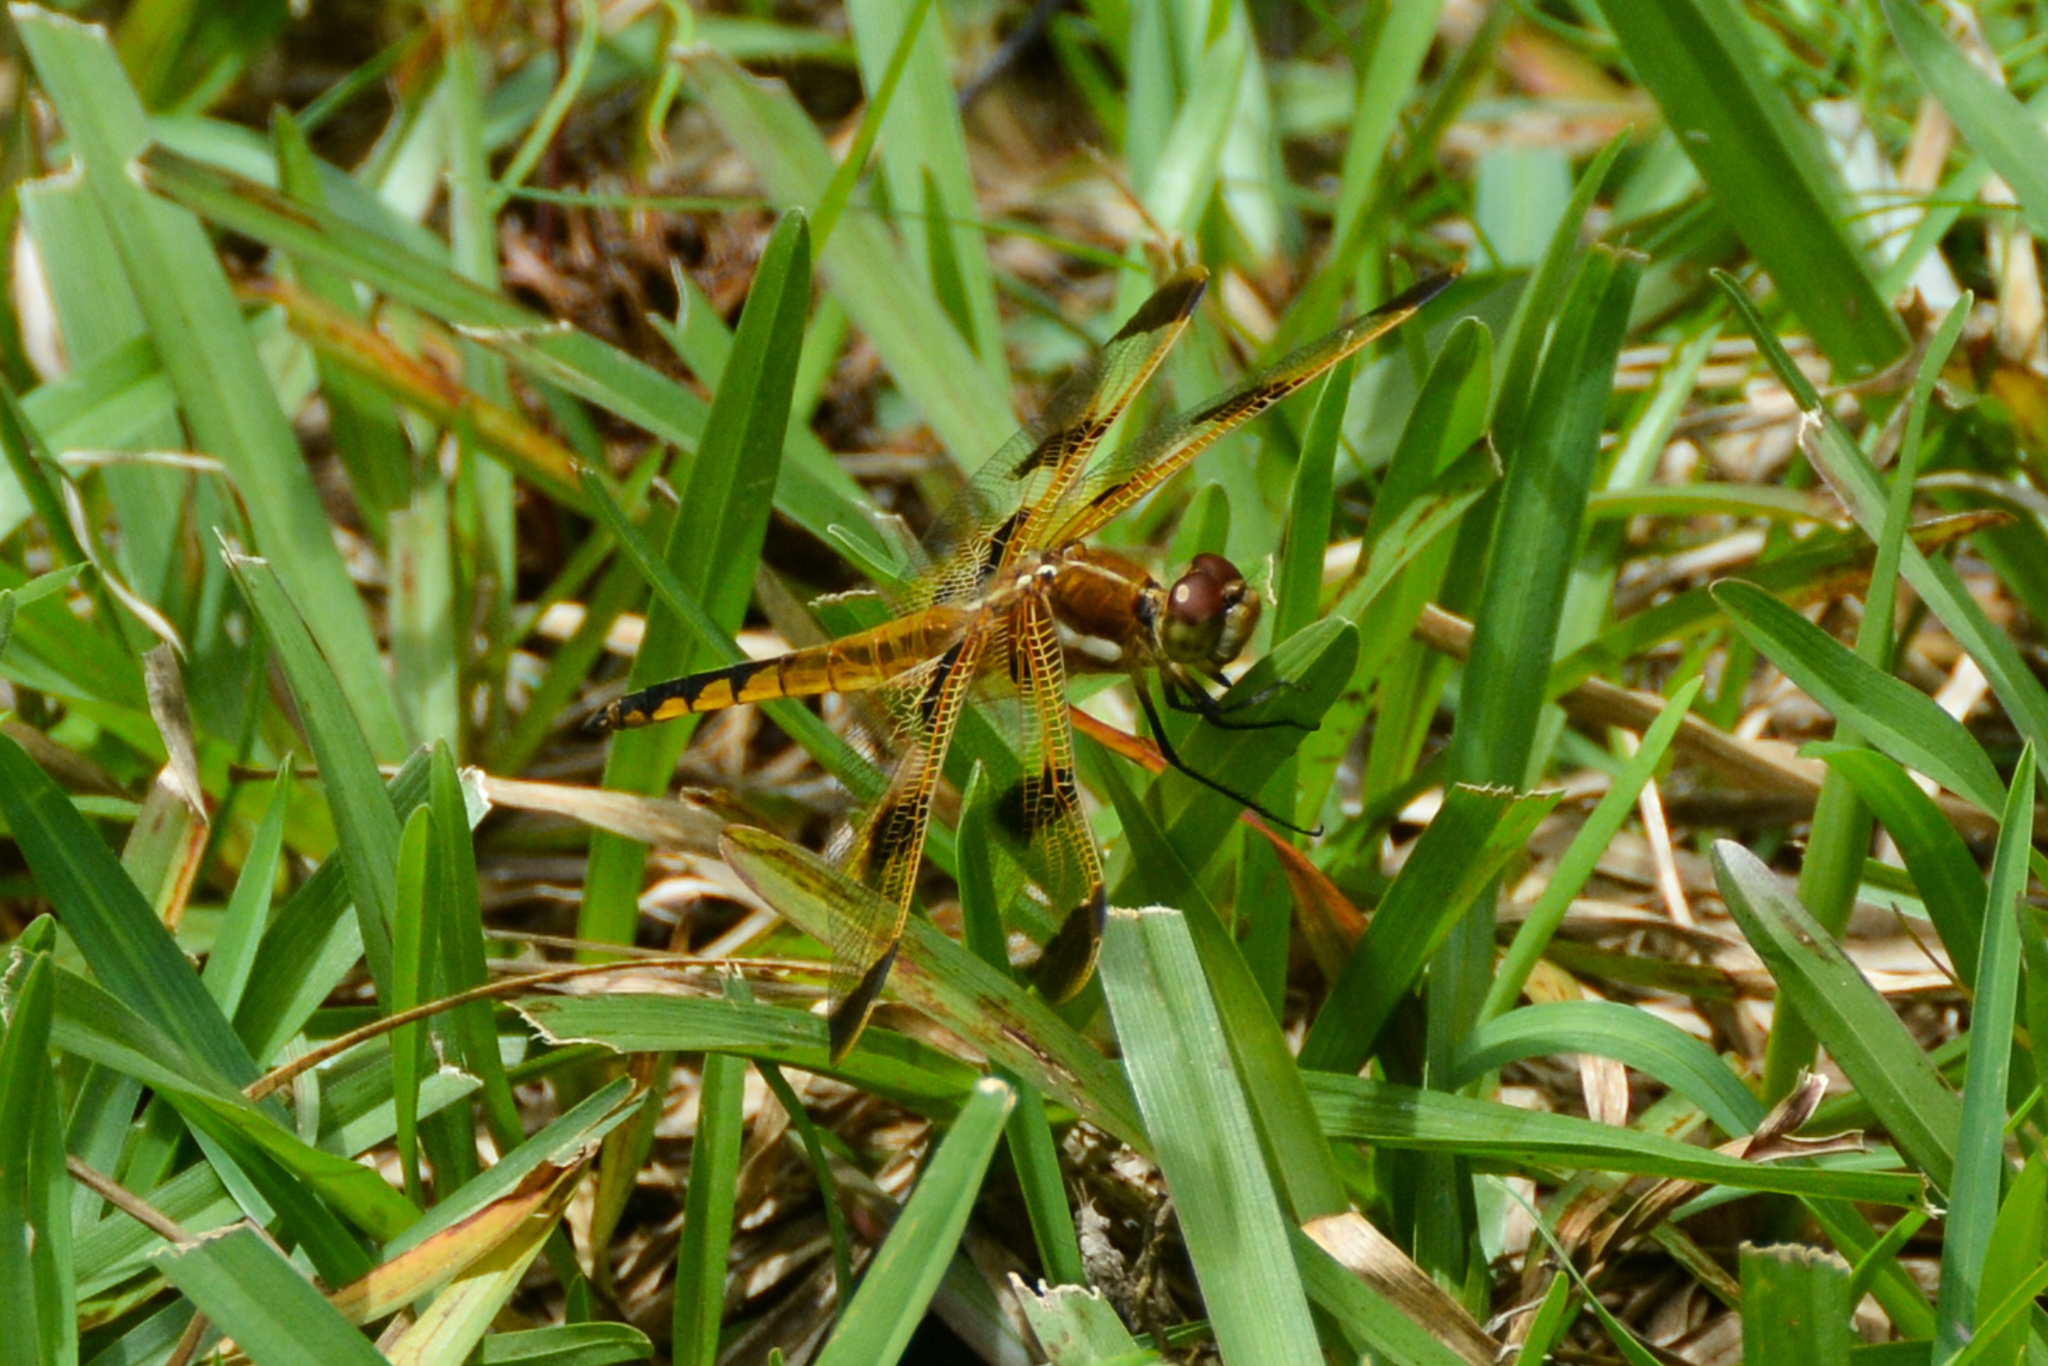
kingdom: Animalia
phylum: Arthropoda
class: Insecta
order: Odonata
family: Libellulidae
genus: Libellula
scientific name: Libellula semifasciata
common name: Painted skimmer
